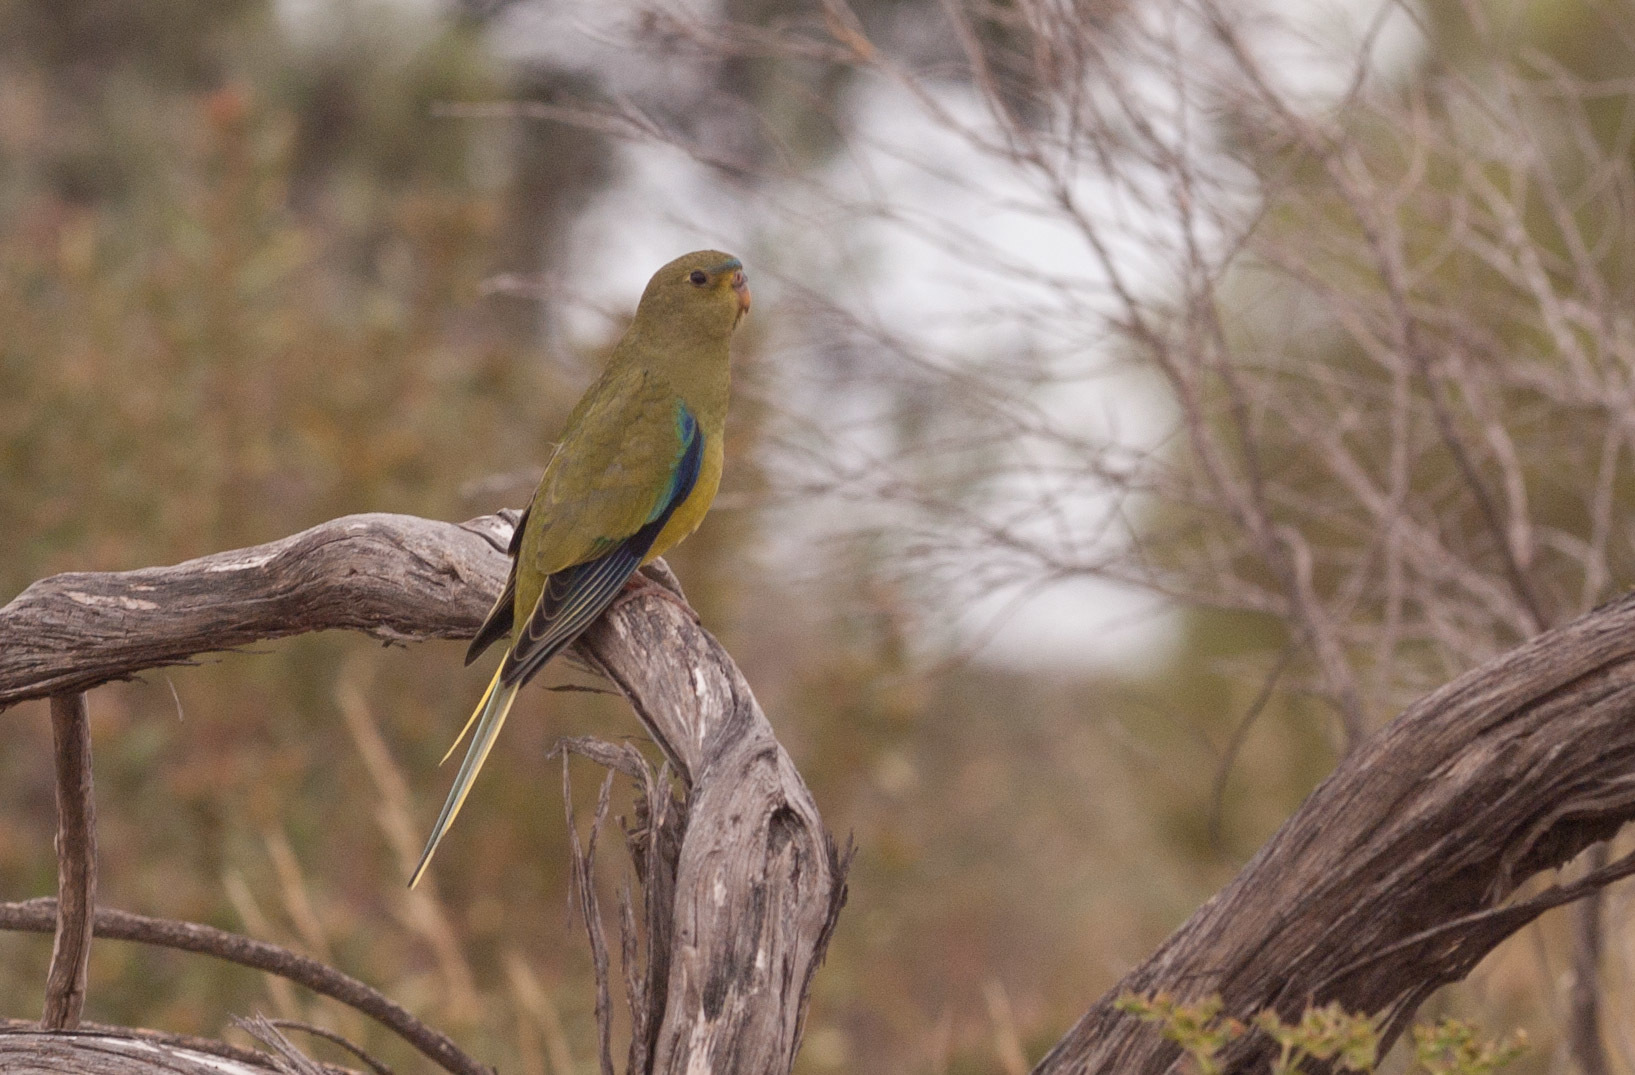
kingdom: Animalia
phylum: Chordata
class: Aves
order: Psittaciformes
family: Psittacidae
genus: Neophema
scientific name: Neophema elegans
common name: Elegant parrot
